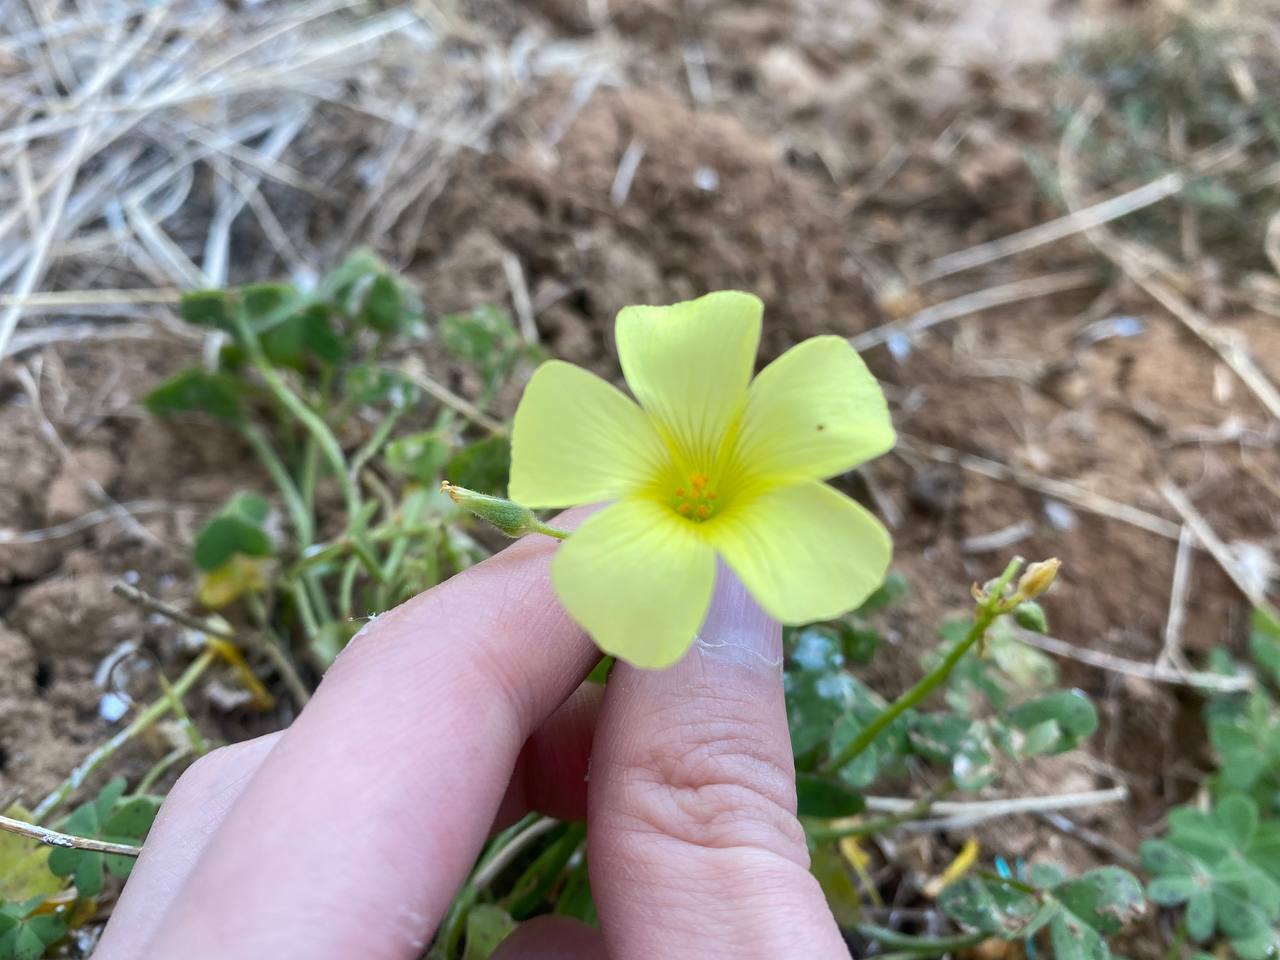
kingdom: Plantae
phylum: Tracheophyta
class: Magnoliopsida
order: Oxalidales
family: Oxalidaceae
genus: Oxalis
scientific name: Oxalis pes-caprae
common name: Bermuda-buttercup
